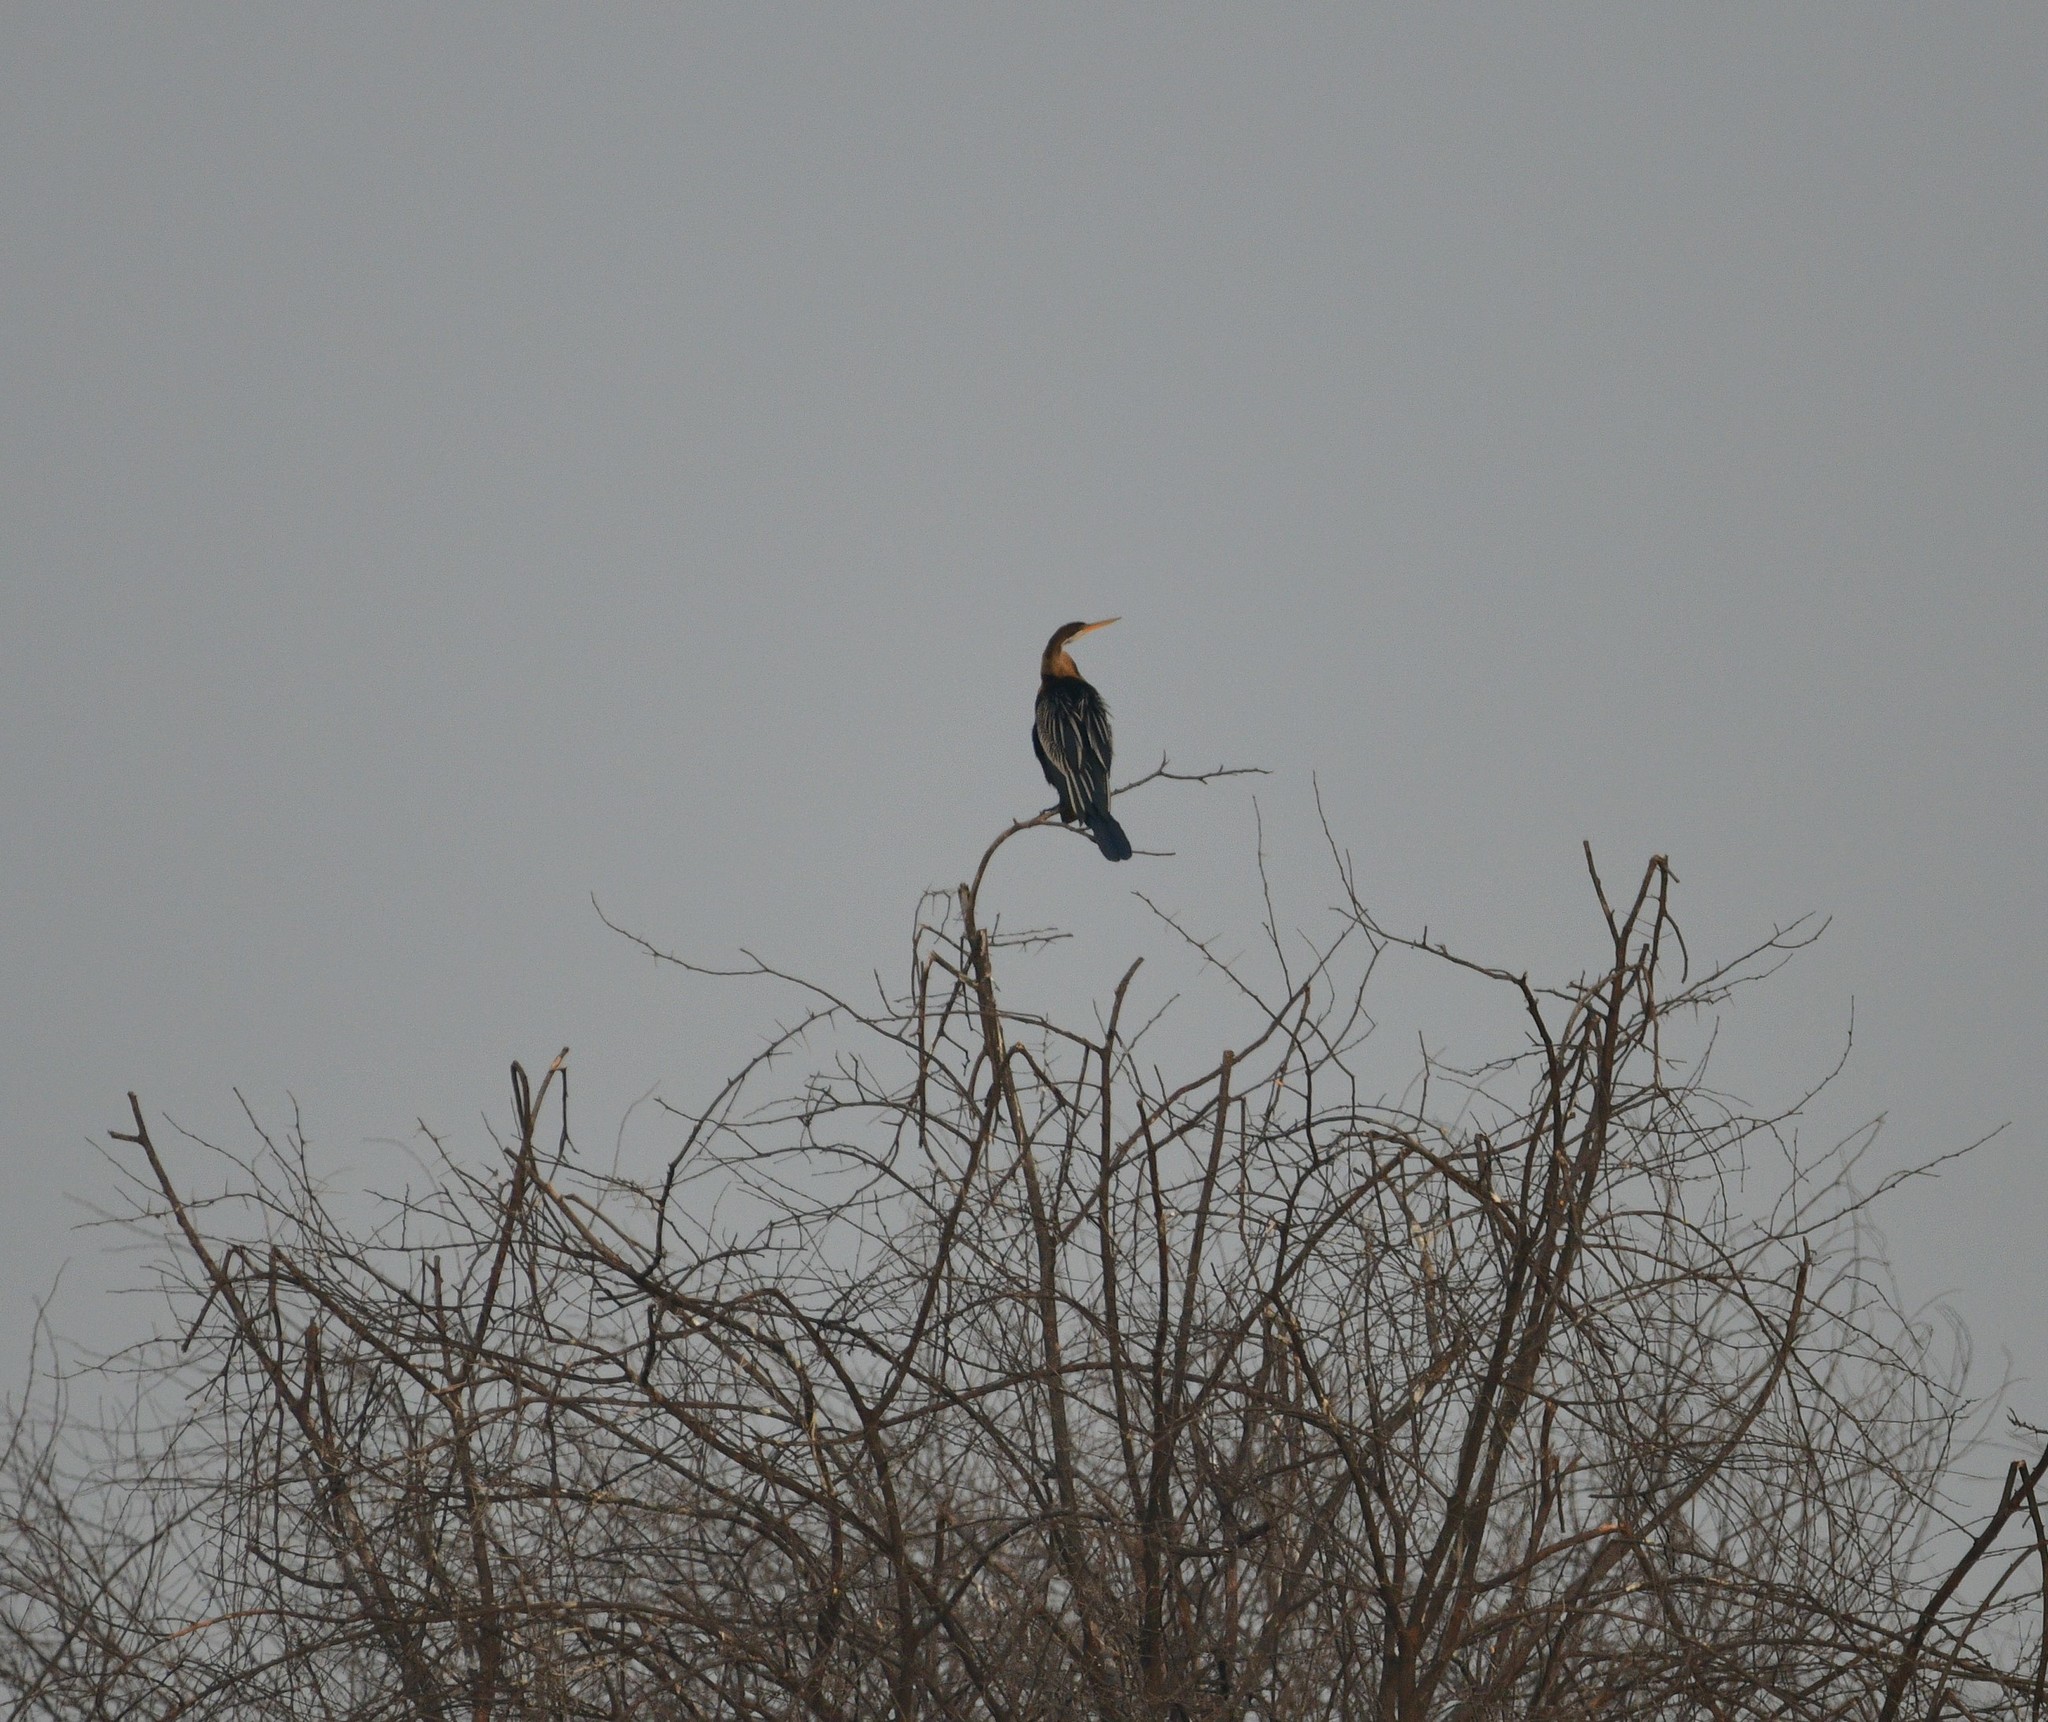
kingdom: Animalia
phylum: Chordata
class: Aves
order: Suliformes
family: Anhingidae
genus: Anhinga
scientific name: Anhinga melanogaster
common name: Oriental darter
